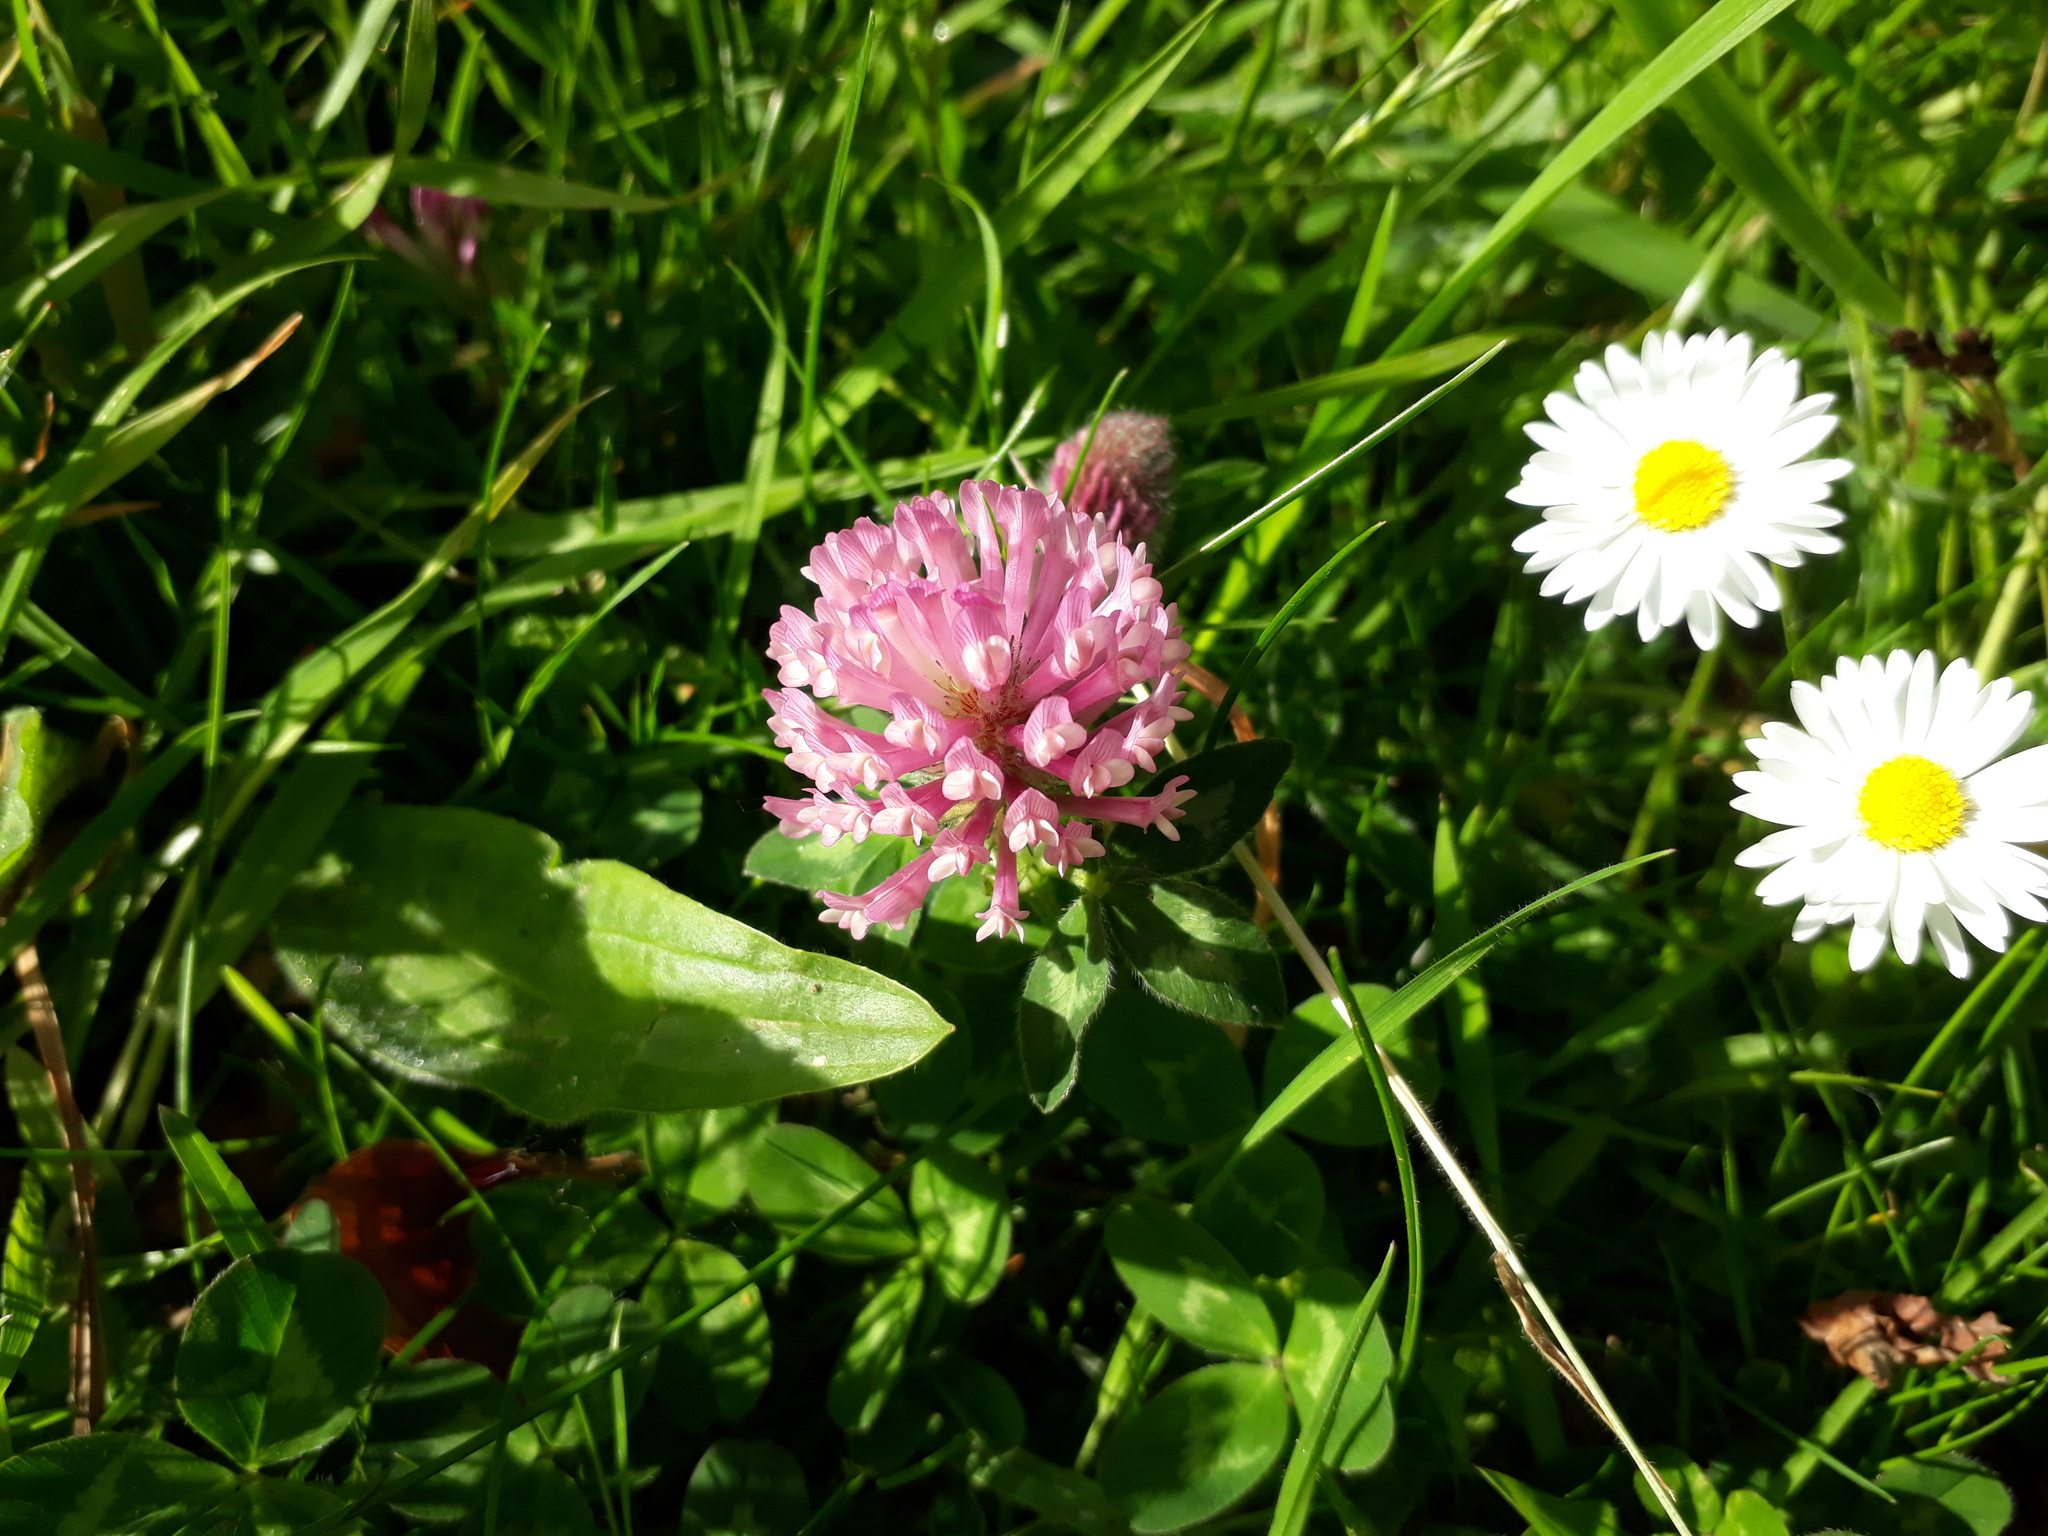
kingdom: Plantae
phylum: Tracheophyta
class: Magnoliopsida
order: Fabales
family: Fabaceae
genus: Trifolium
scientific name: Trifolium pratense
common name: Red clover
